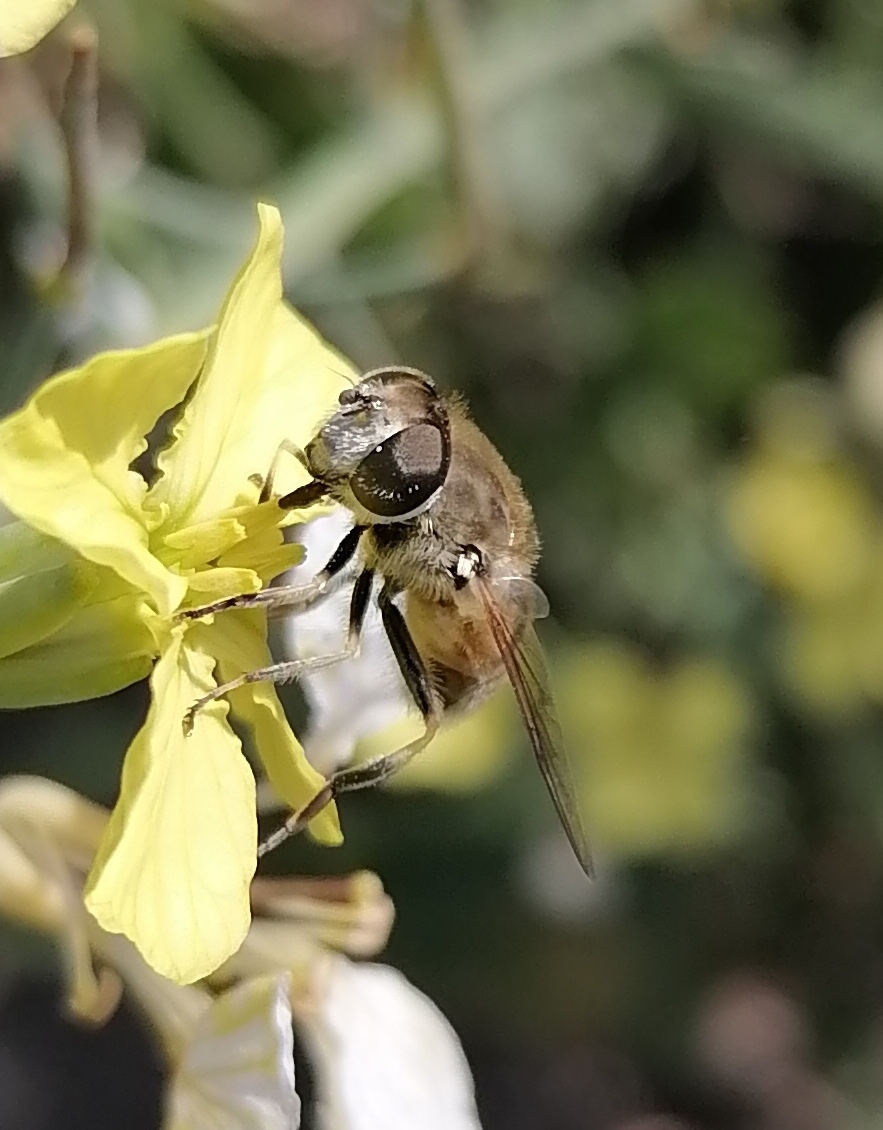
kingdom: Animalia
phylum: Arthropoda
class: Insecta
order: Diptera
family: Syrphidae
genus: Eristalis
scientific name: Eristalis arbustorum
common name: Hover fly
